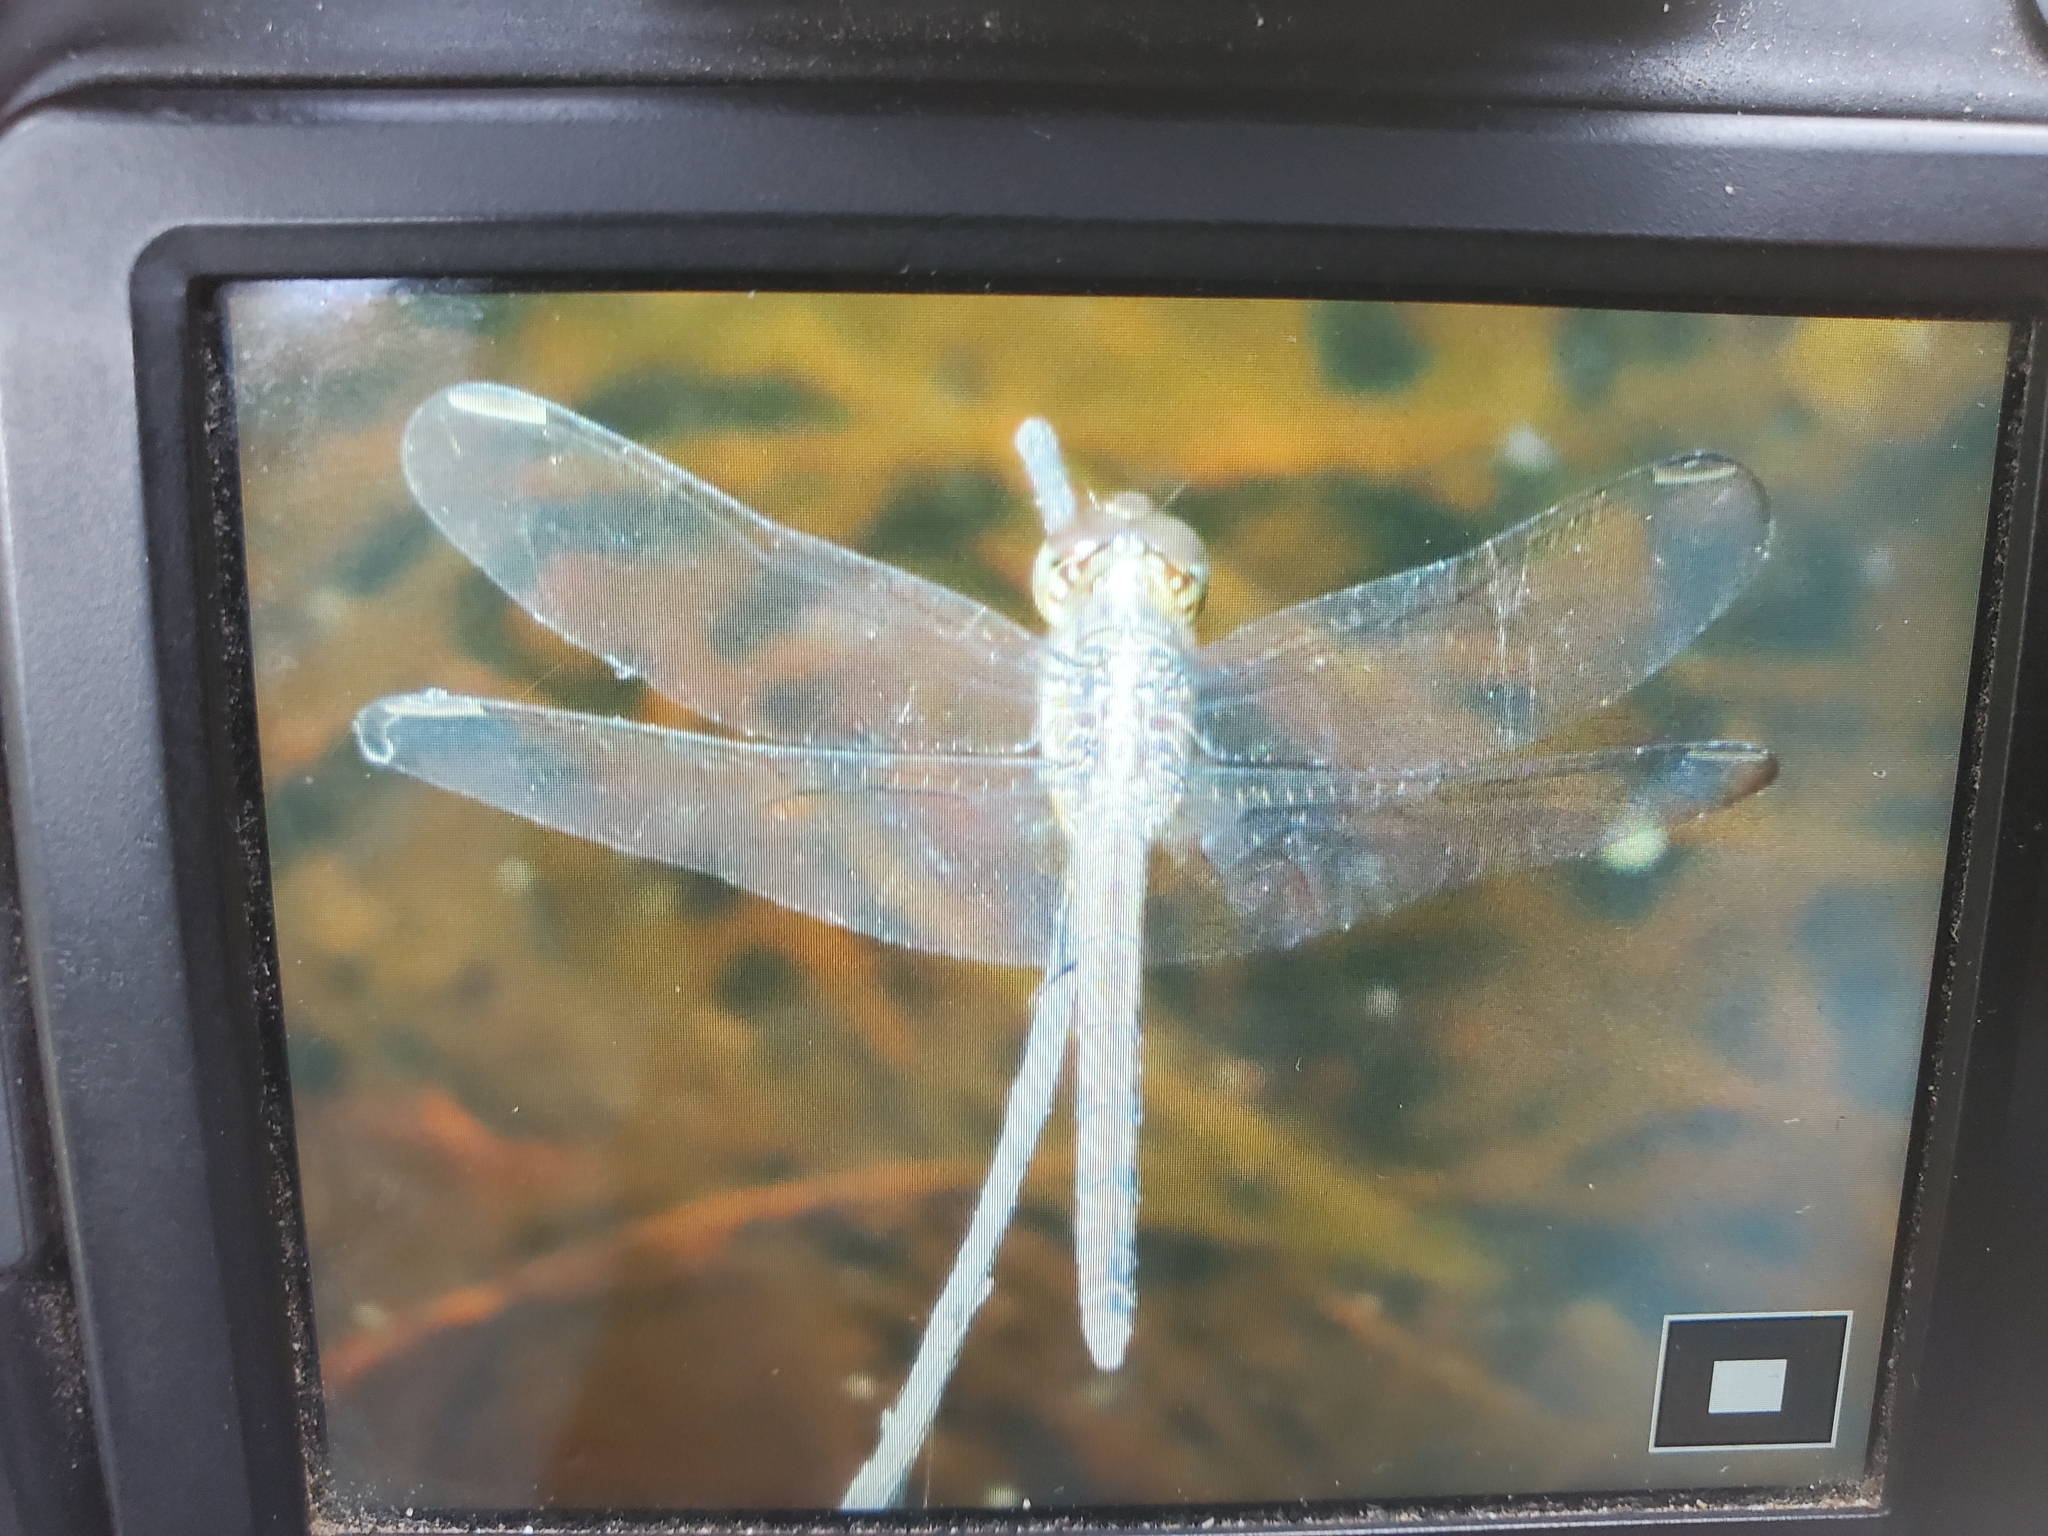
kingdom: Animalia
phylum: Arthropoda
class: Insecta
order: Odonata
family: Libellulidae
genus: Erythrodiplax
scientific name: Erythrodiplax umbrata
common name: Band-winged dragonlet
